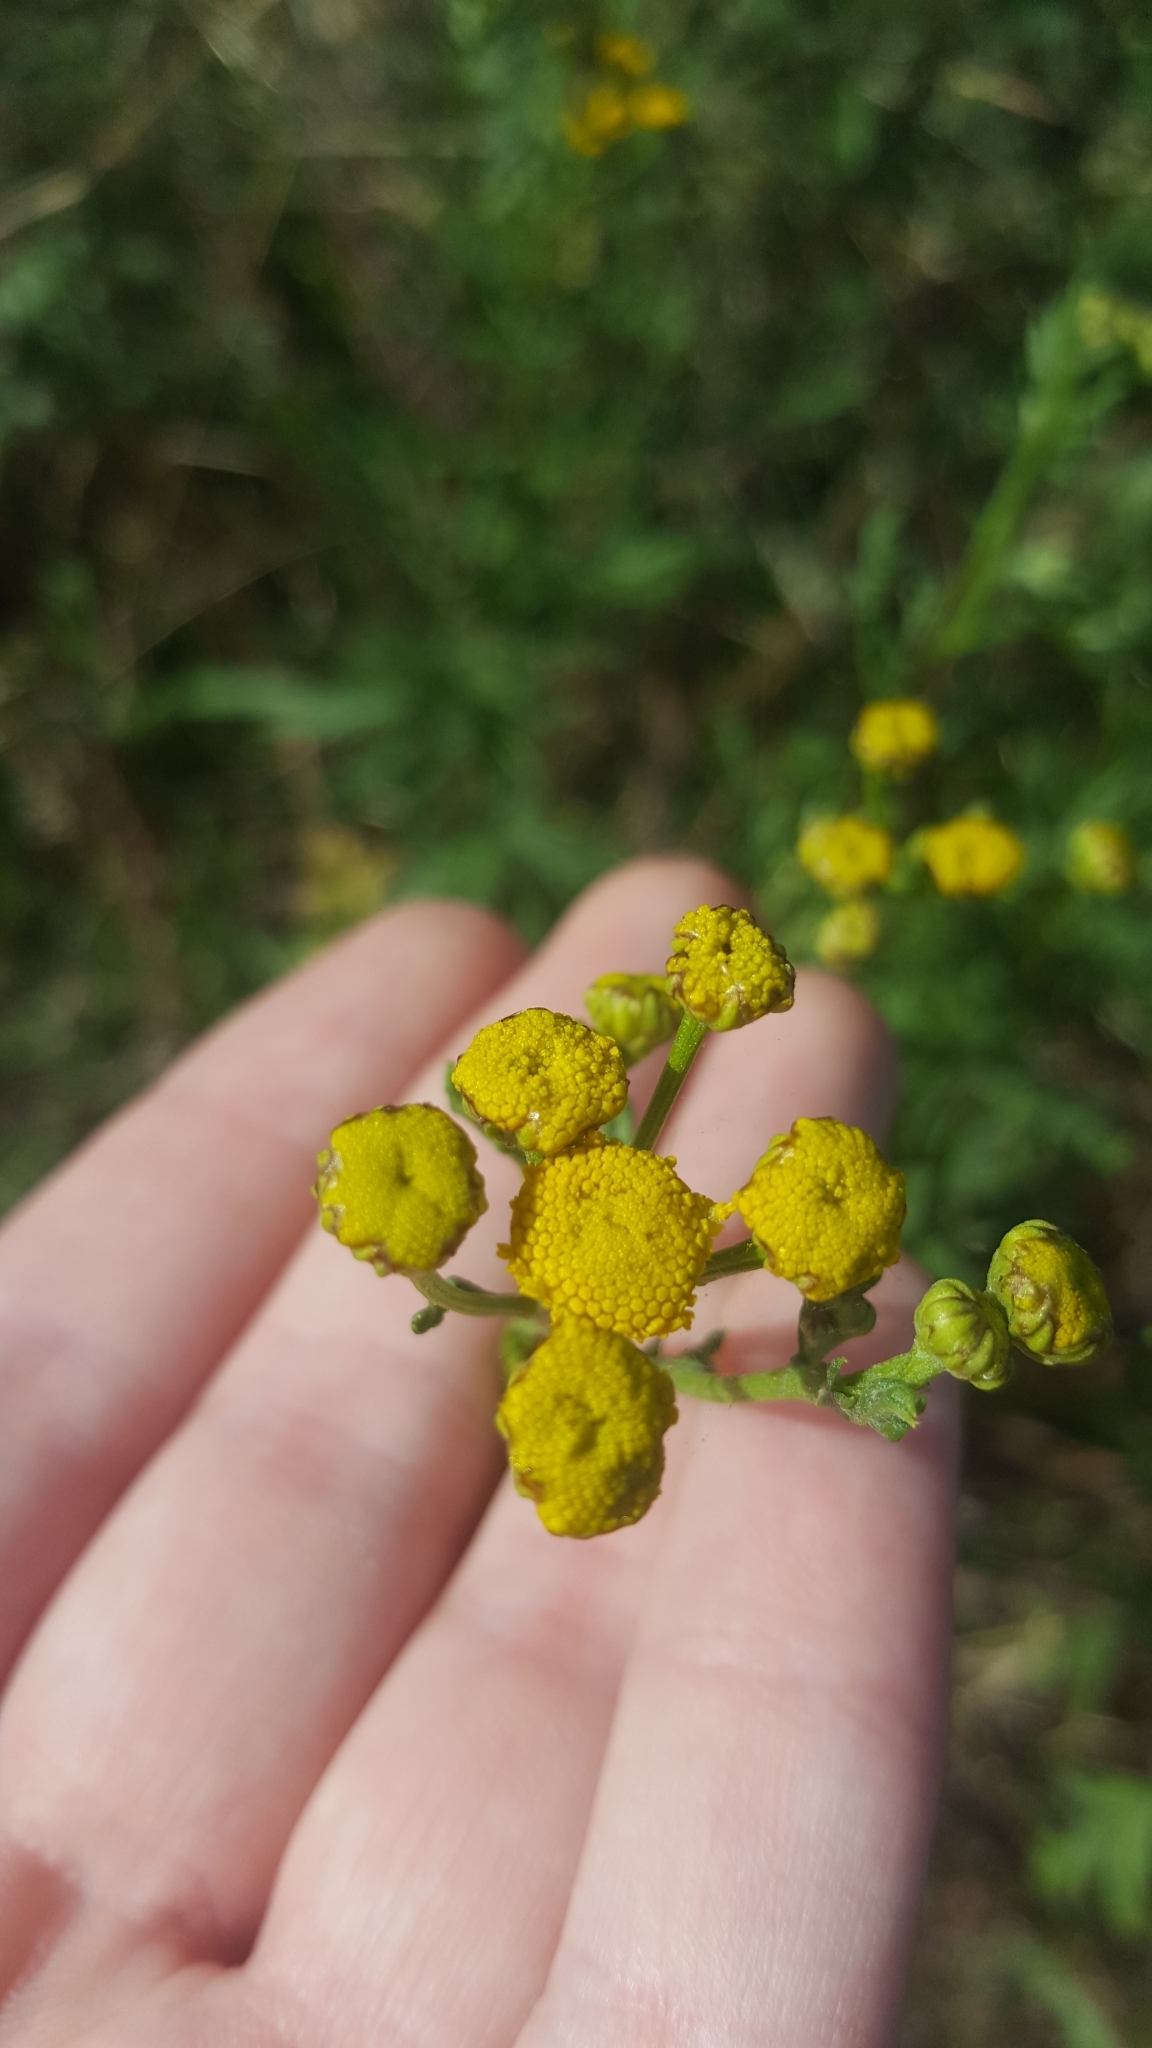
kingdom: Plantae
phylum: Tracheophyta
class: Magnoliopsida
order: Asterales
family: Asteraceae
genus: Tanacetum
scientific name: Tanacetum vulgare
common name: Common tansy
